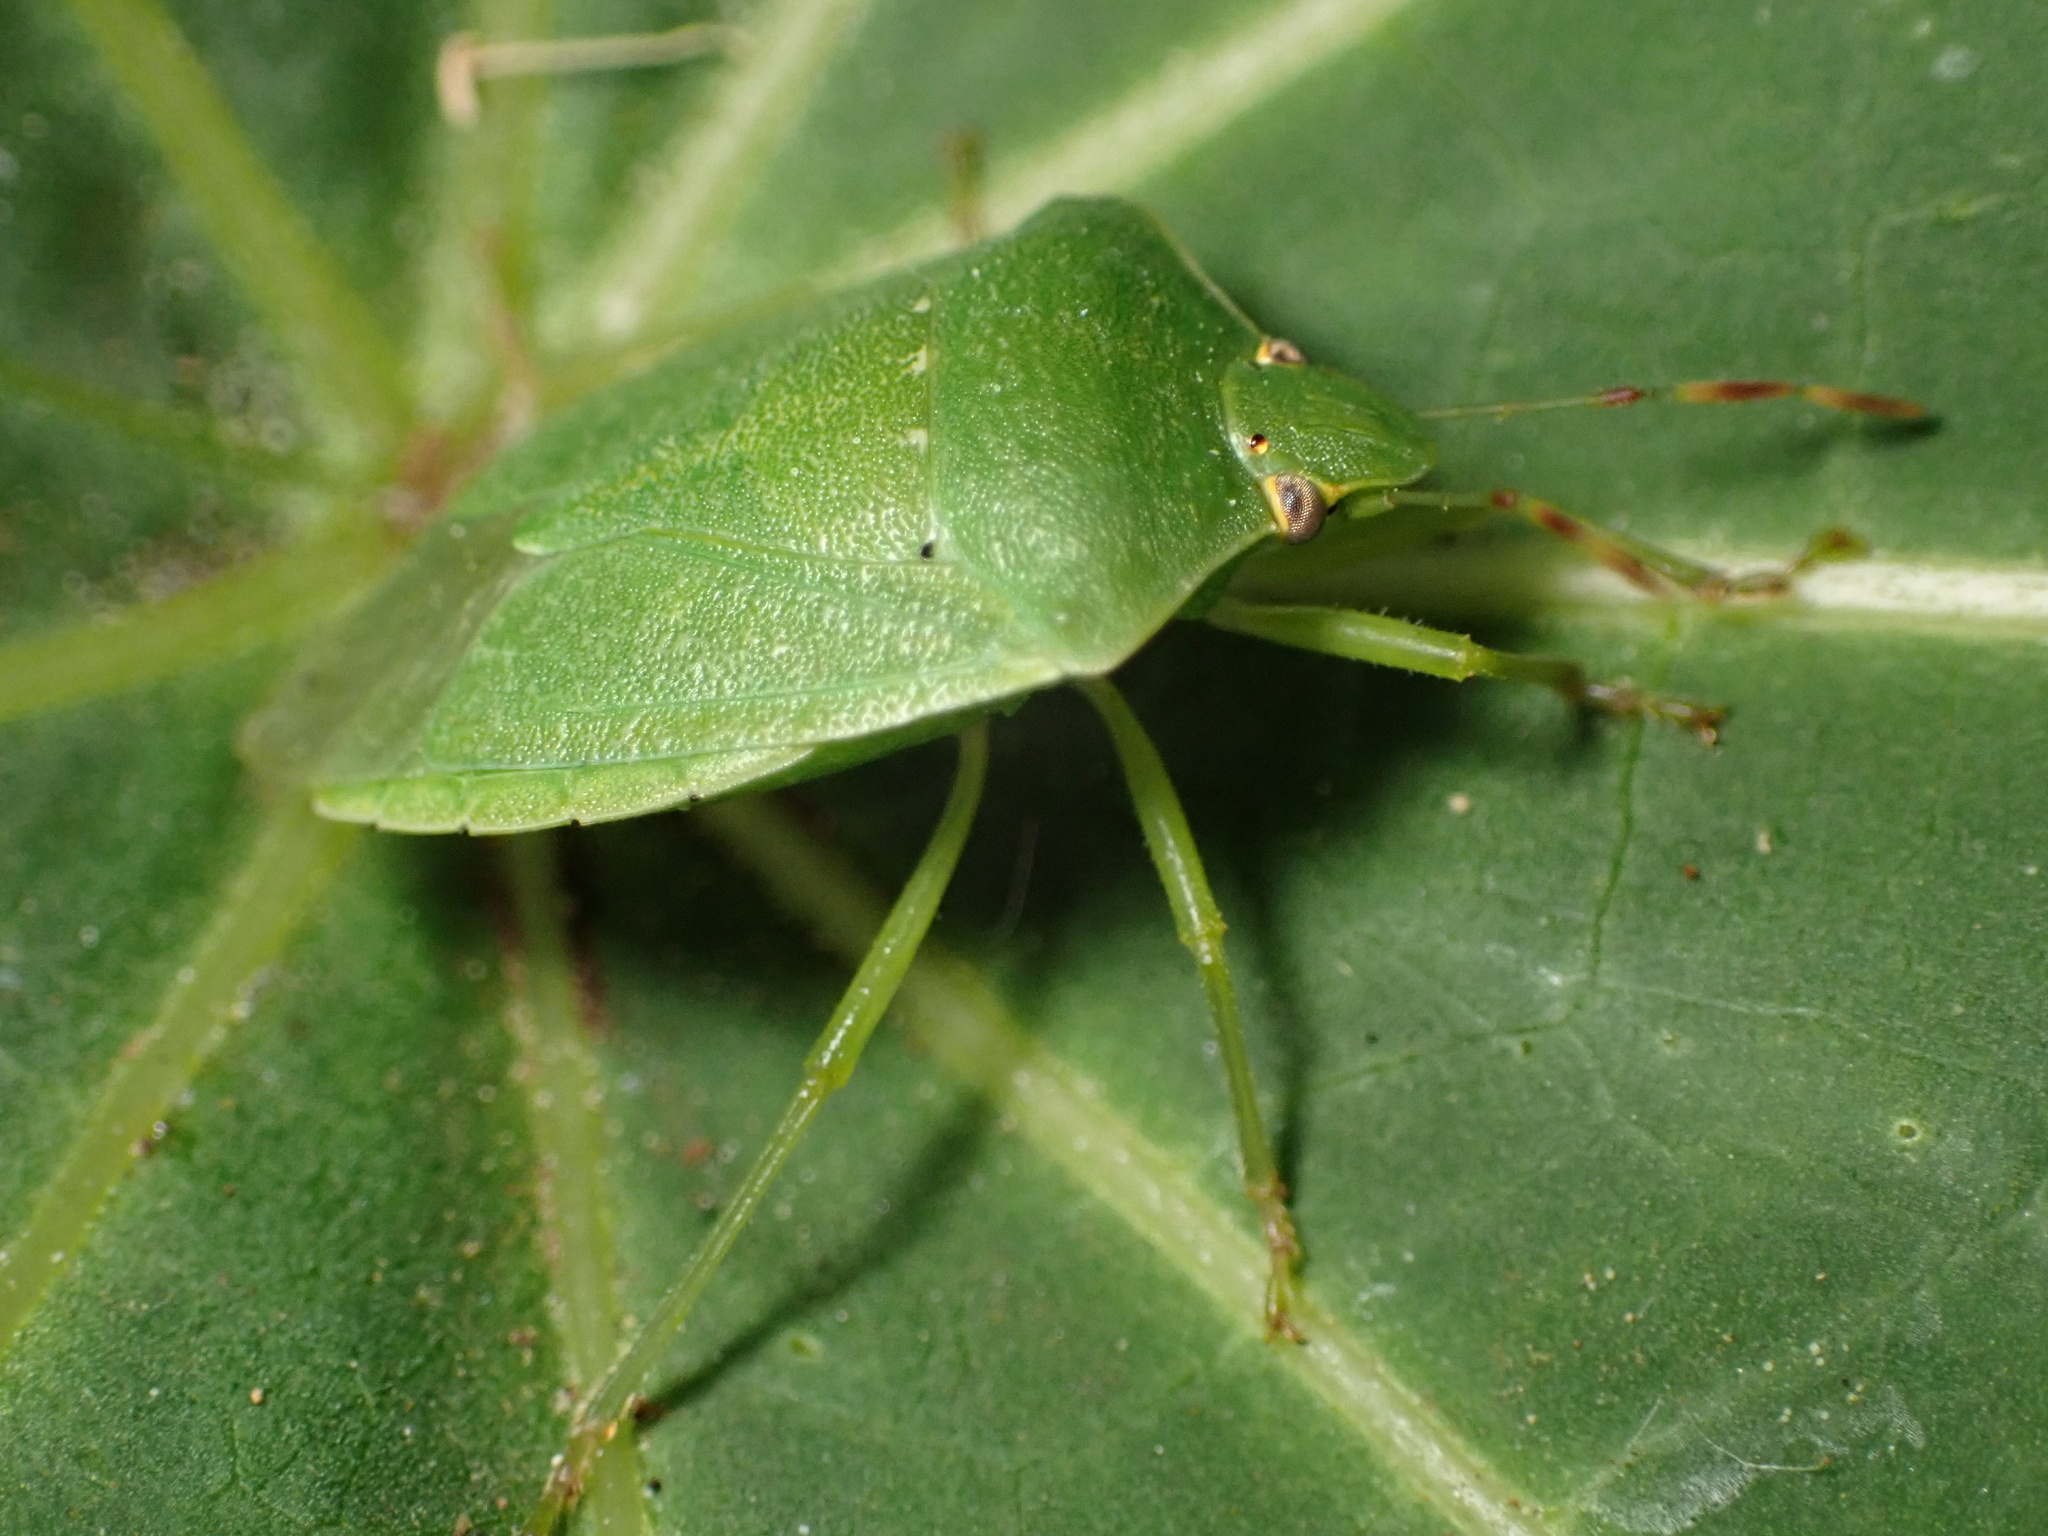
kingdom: Animalia
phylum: Arthropoda
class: Insecta
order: Hemiptera
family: Pentatomidae
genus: Nezara
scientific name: Nezara viridula
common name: Southern green stink bug
